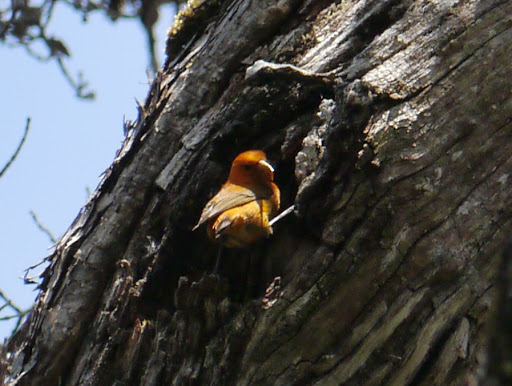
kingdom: Animalia
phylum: Chordata
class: Aves
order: Passeriformes
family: Fringillidae
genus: Loxops
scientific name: Loxops coccineus
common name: Hawaii akepa
